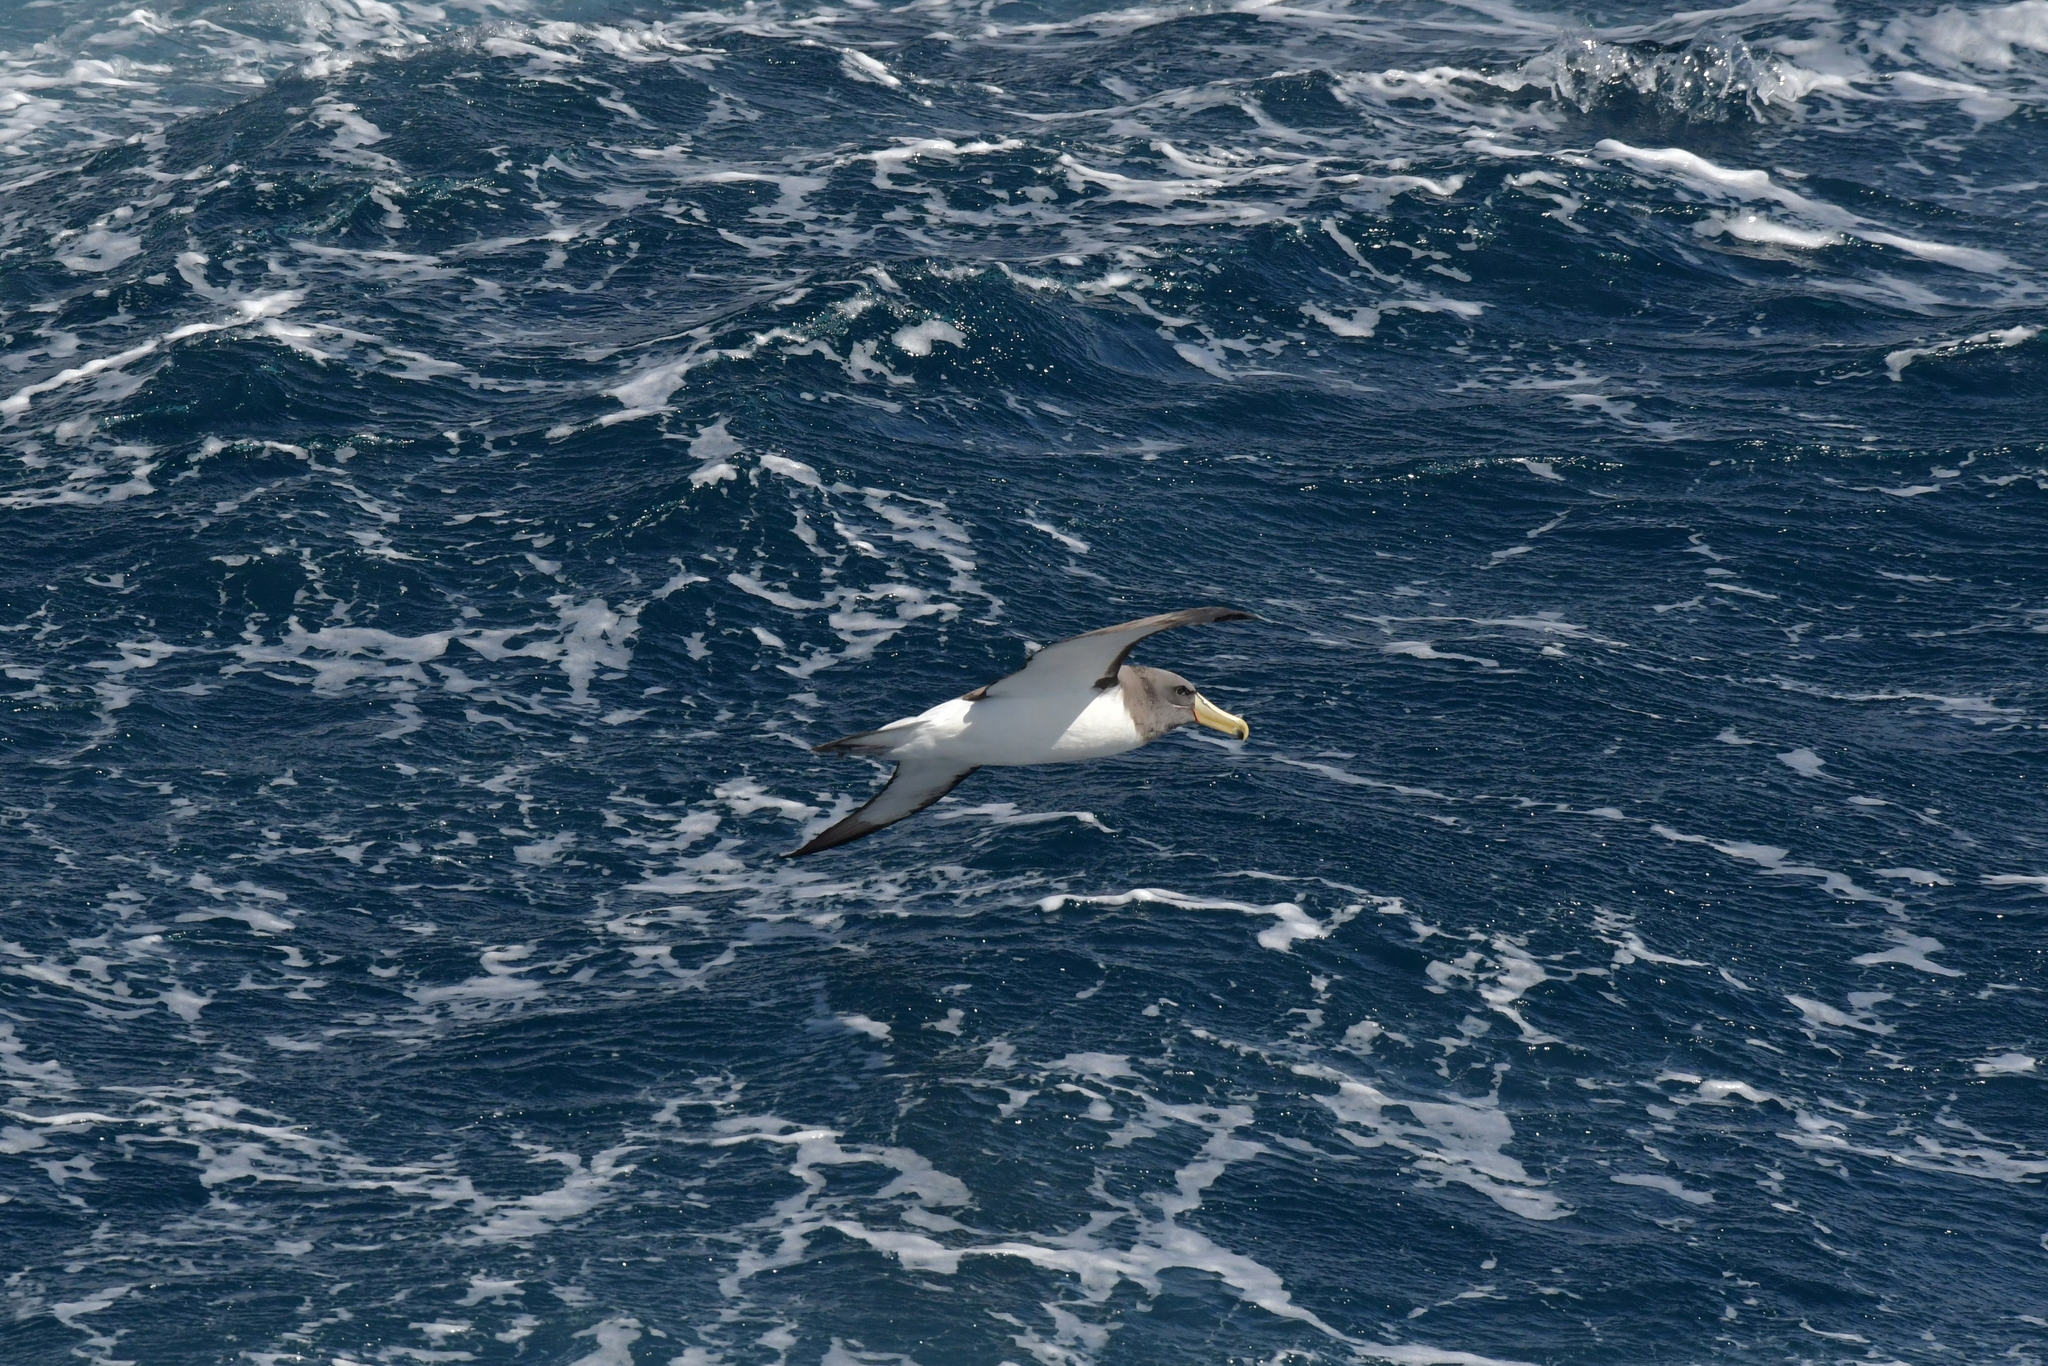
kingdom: Animalia
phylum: Chordata
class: Aves
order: Procellariiformes
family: Diomedeidae
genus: Thalassarche
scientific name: Thalassarche eremita
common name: Chatham albatross
